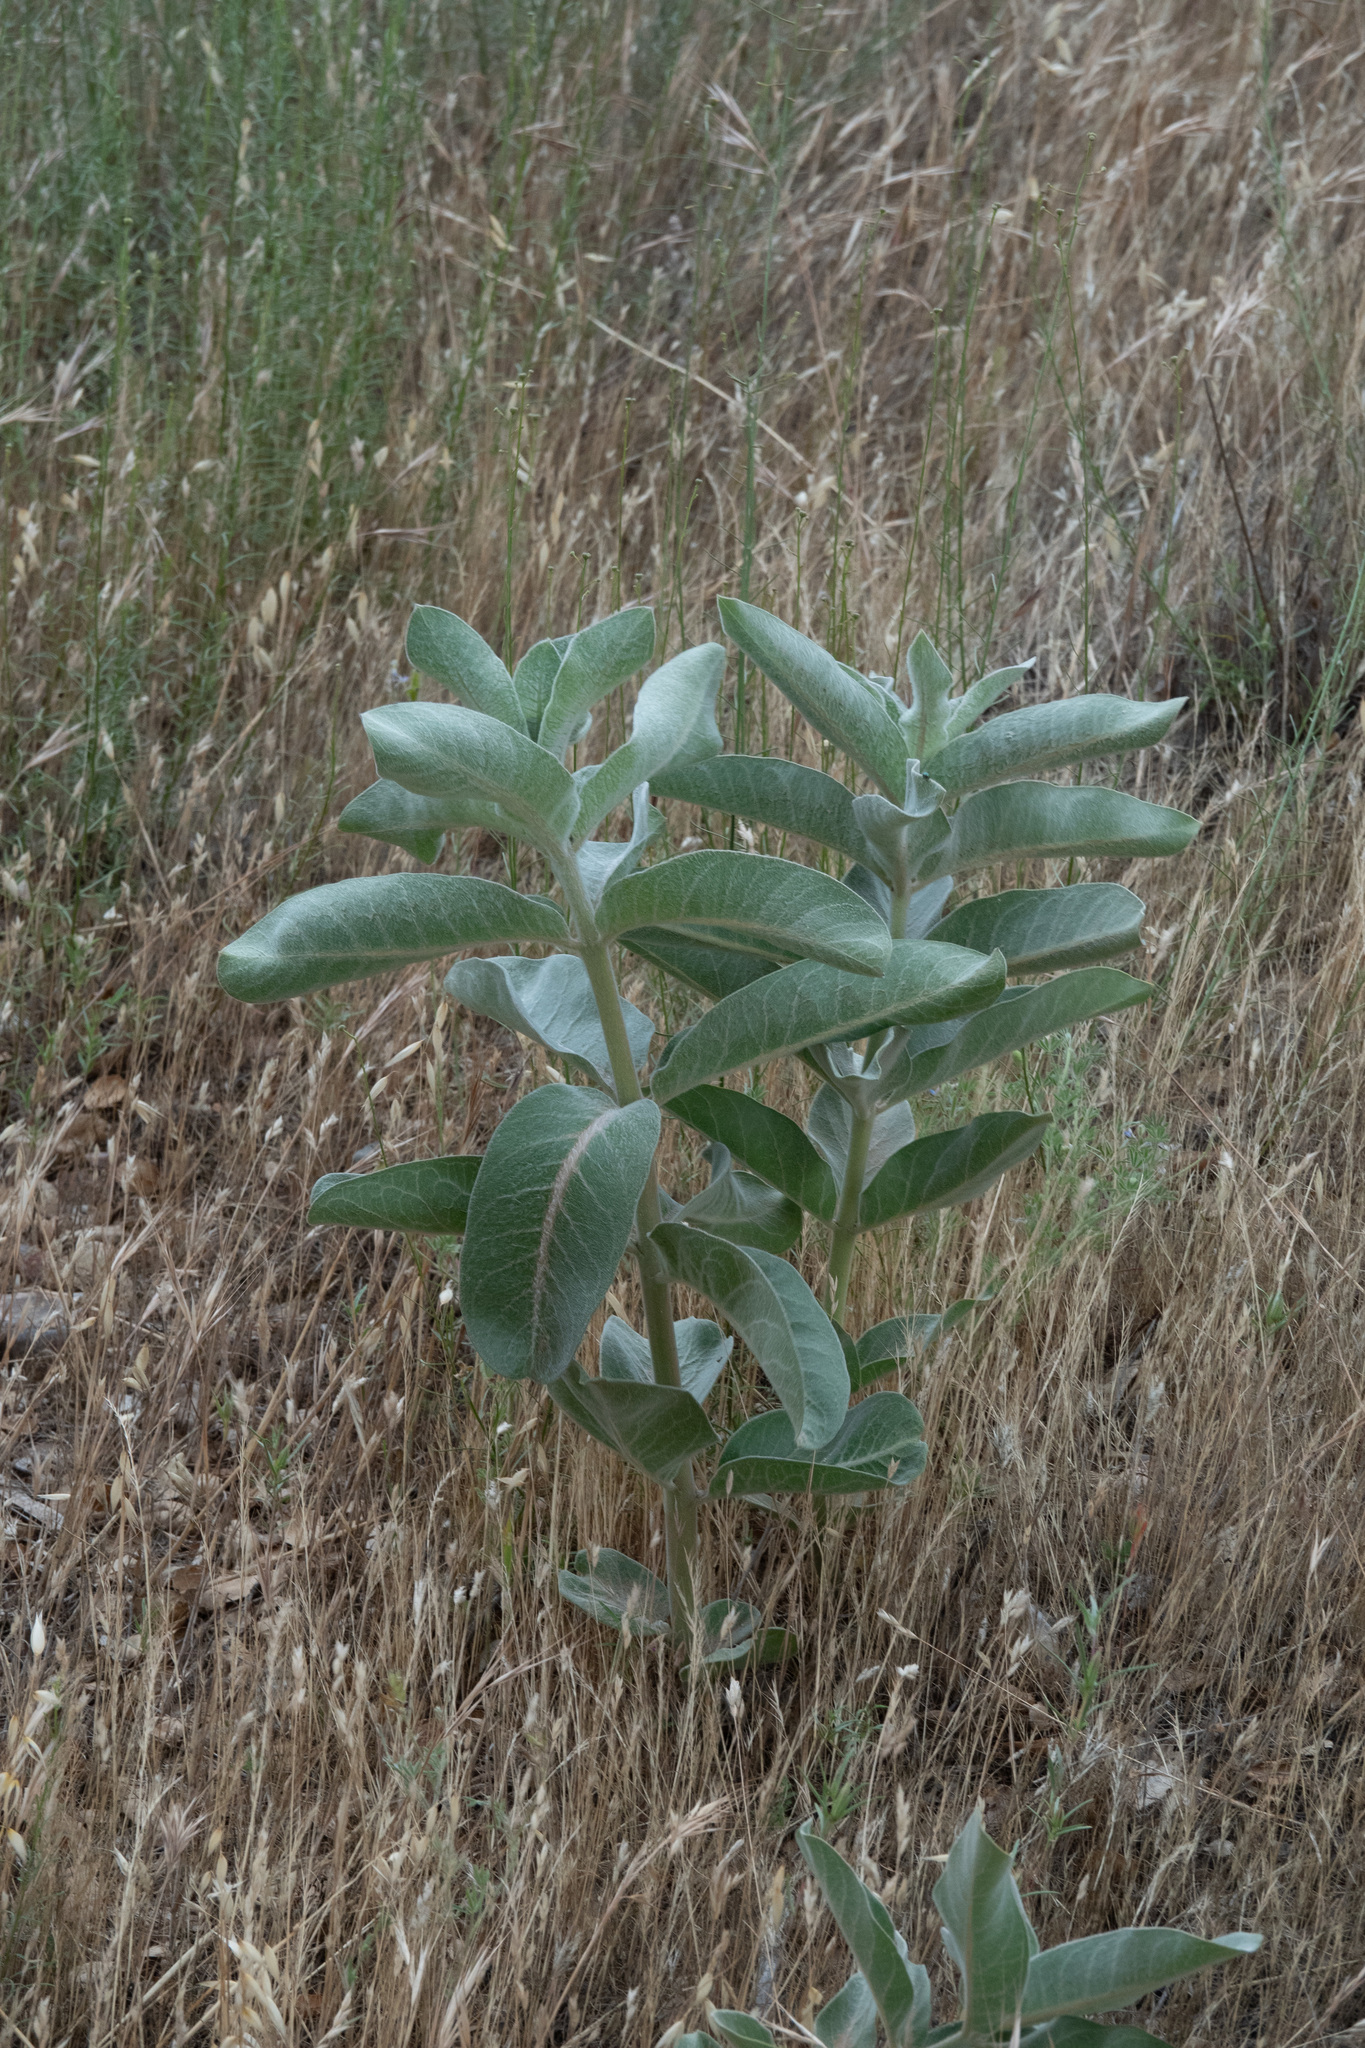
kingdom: Plantae
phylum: Tracheophyta
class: Magnoliopsida
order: Gentianales
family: Apocynaceae
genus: Asclepias
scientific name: Asclepias eriocarpa
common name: Indian milkweed
